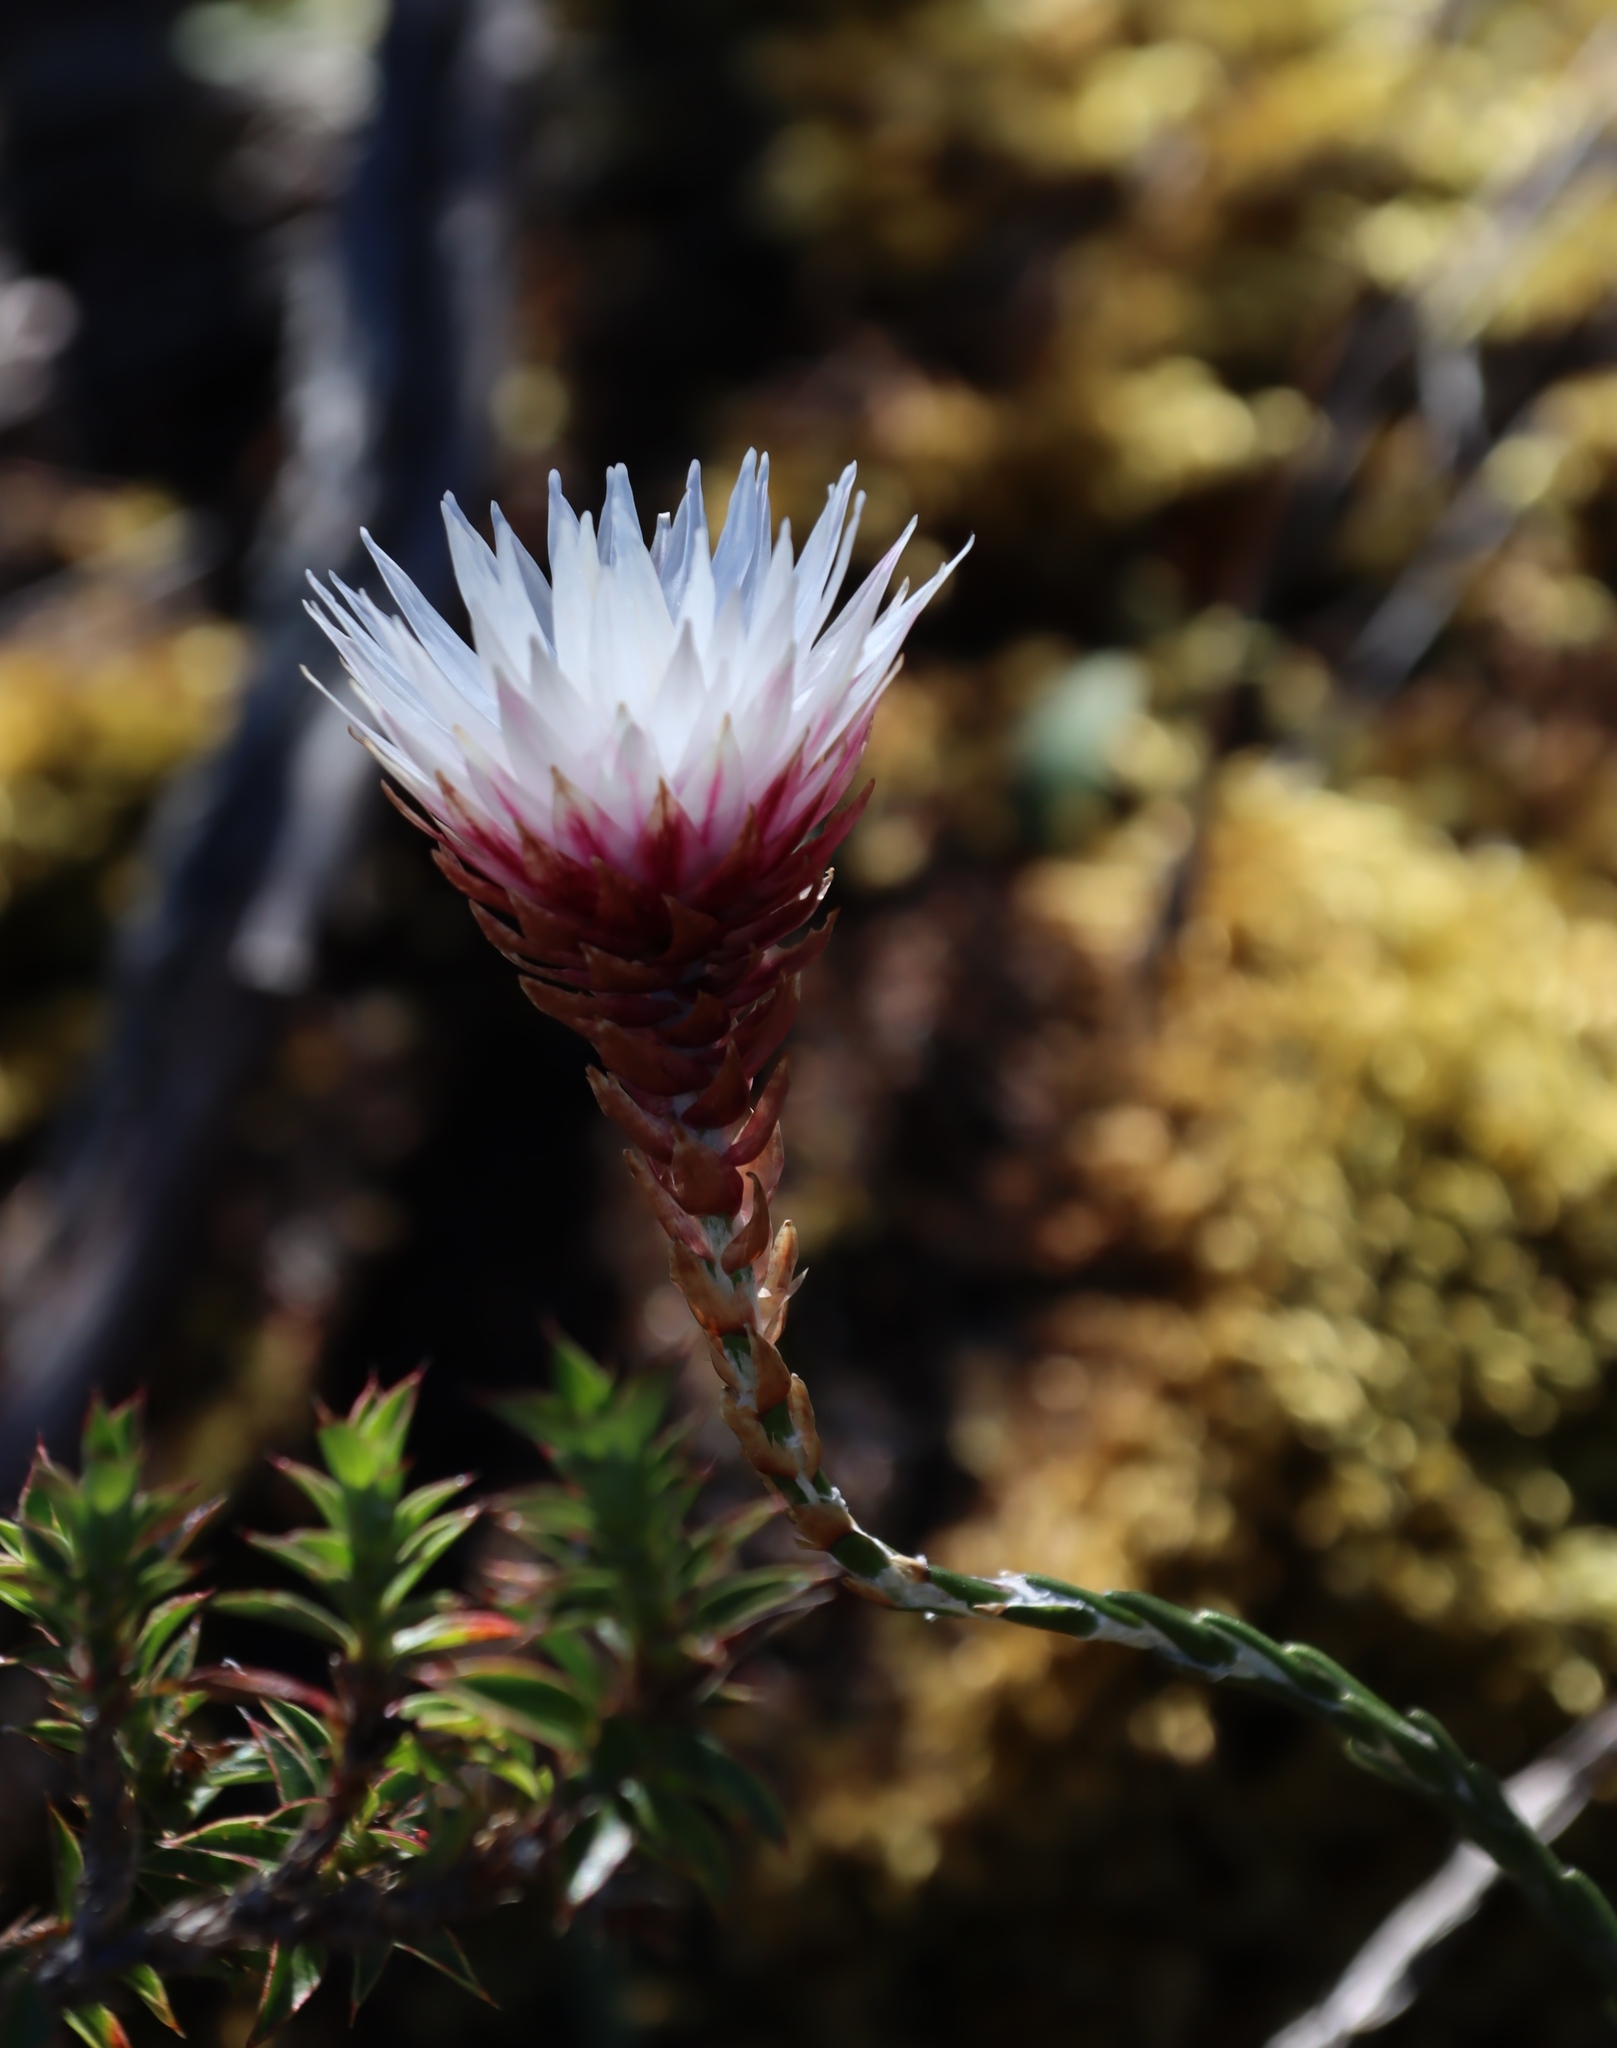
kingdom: Plantae
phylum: Tracheophyta
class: Magnoliopsida
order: Asterales
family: Asteraceae
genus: Edmondia
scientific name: Edmondia pinifolia
